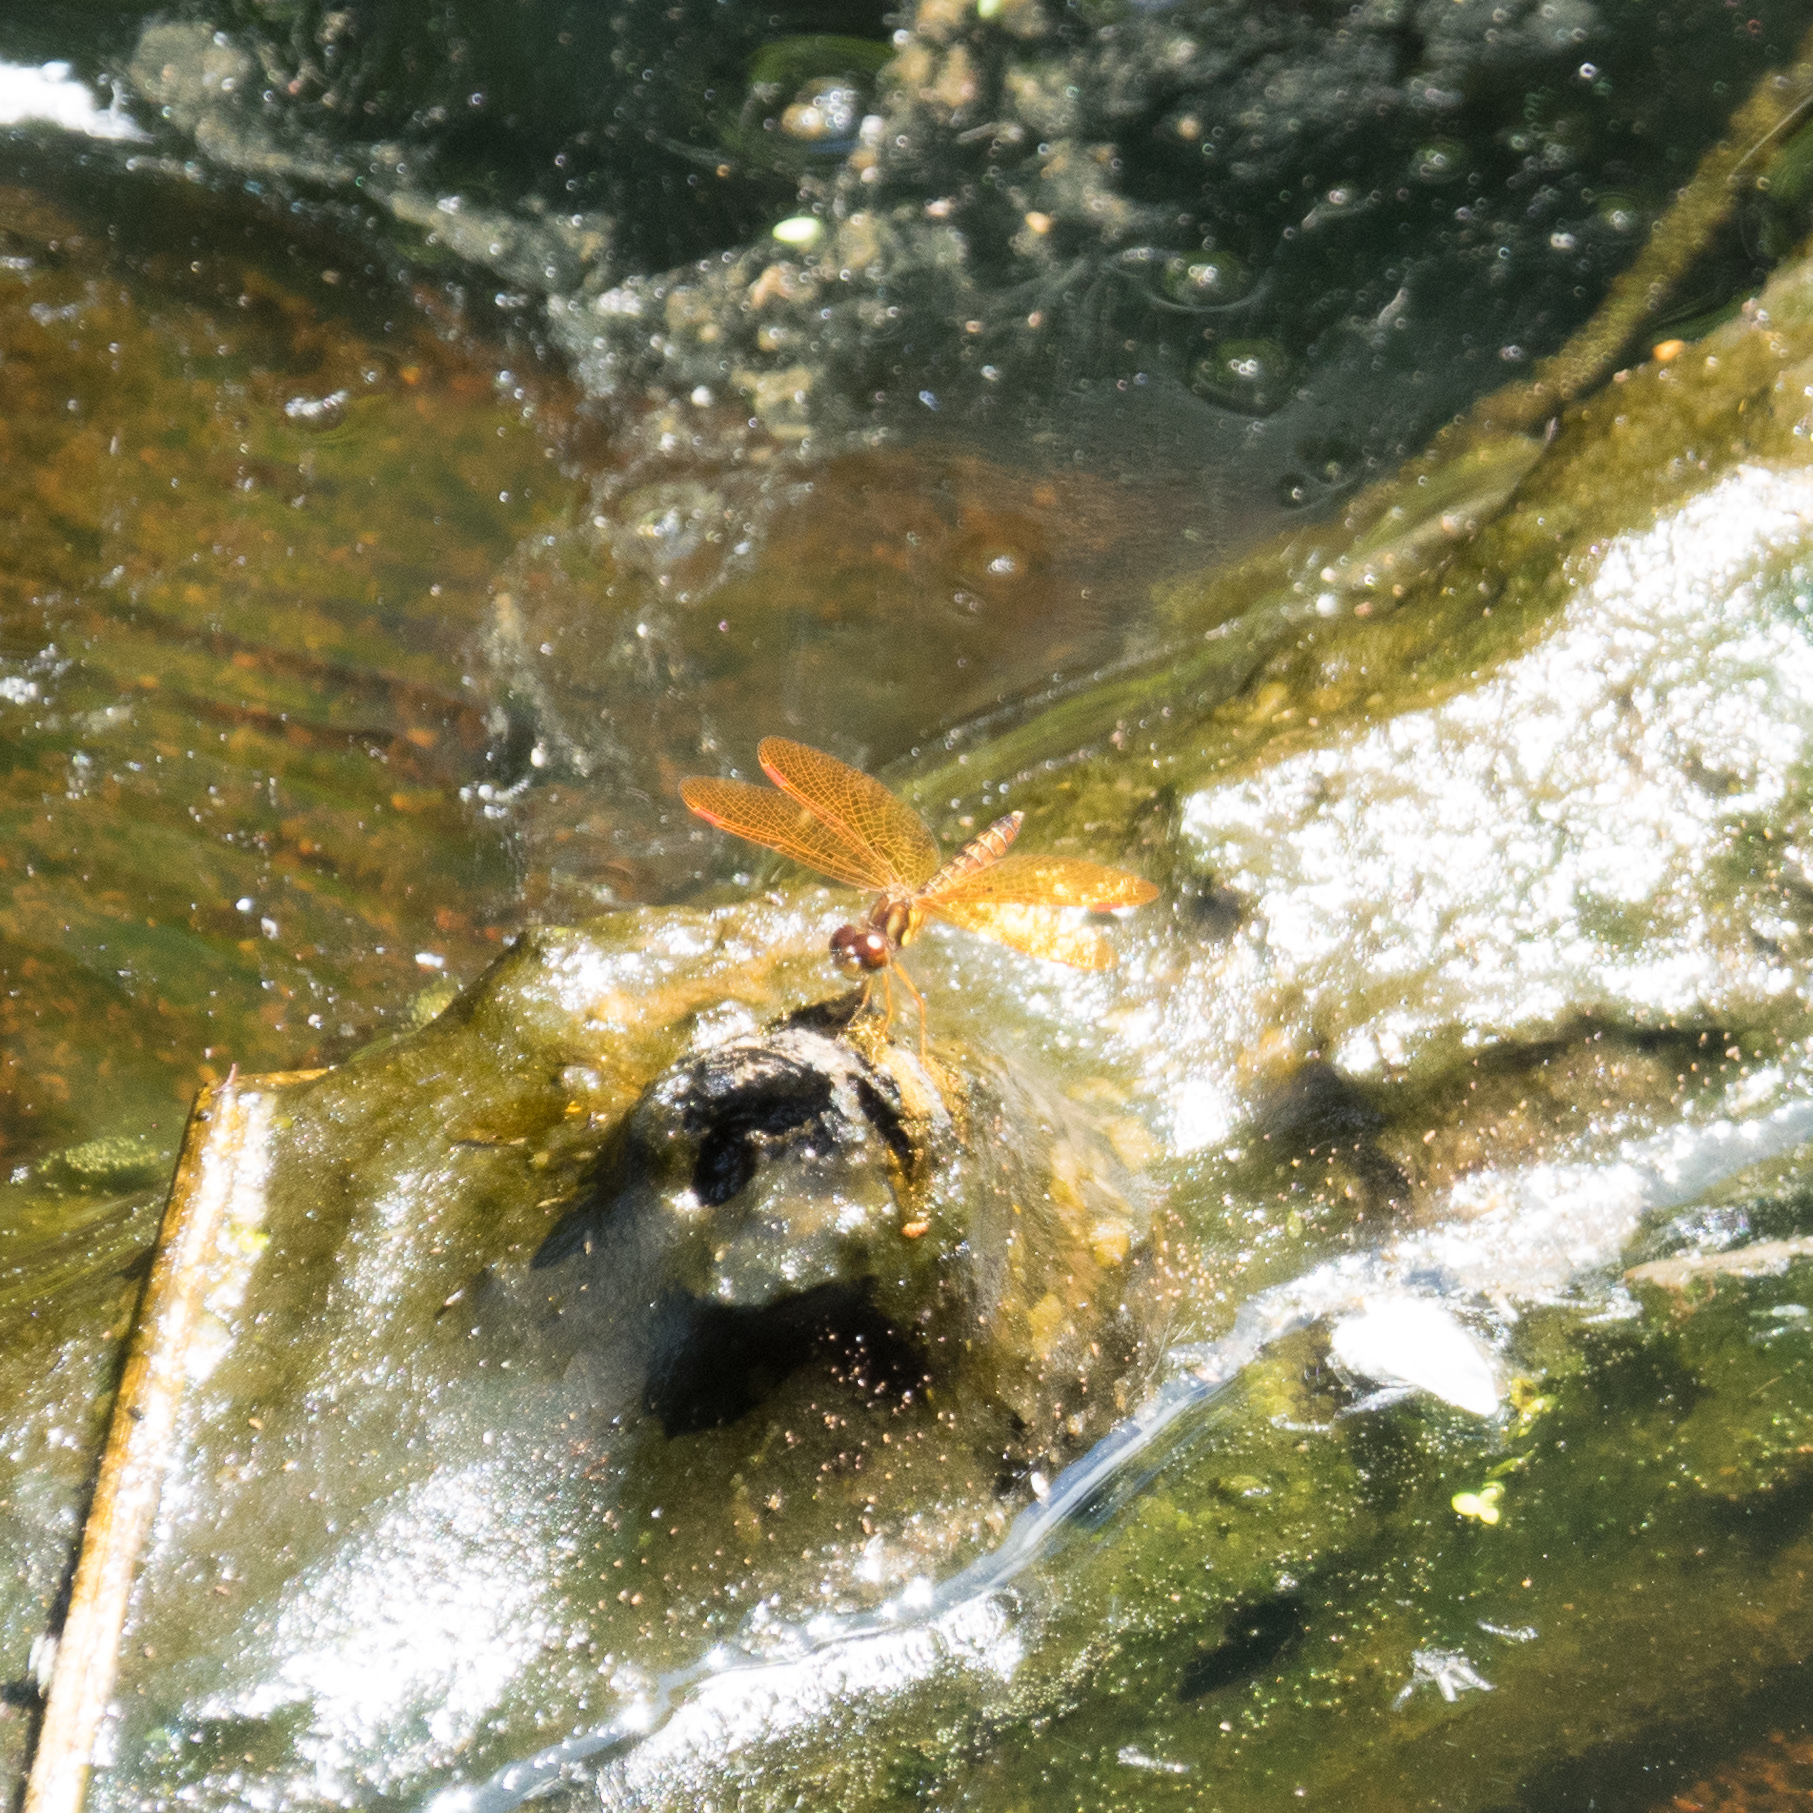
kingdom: Animalia
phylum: Arthropoda
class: Insecta
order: Odonata
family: Libellulidae
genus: Perithemis
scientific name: Perithemis tenera
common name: Eastern amberwing
